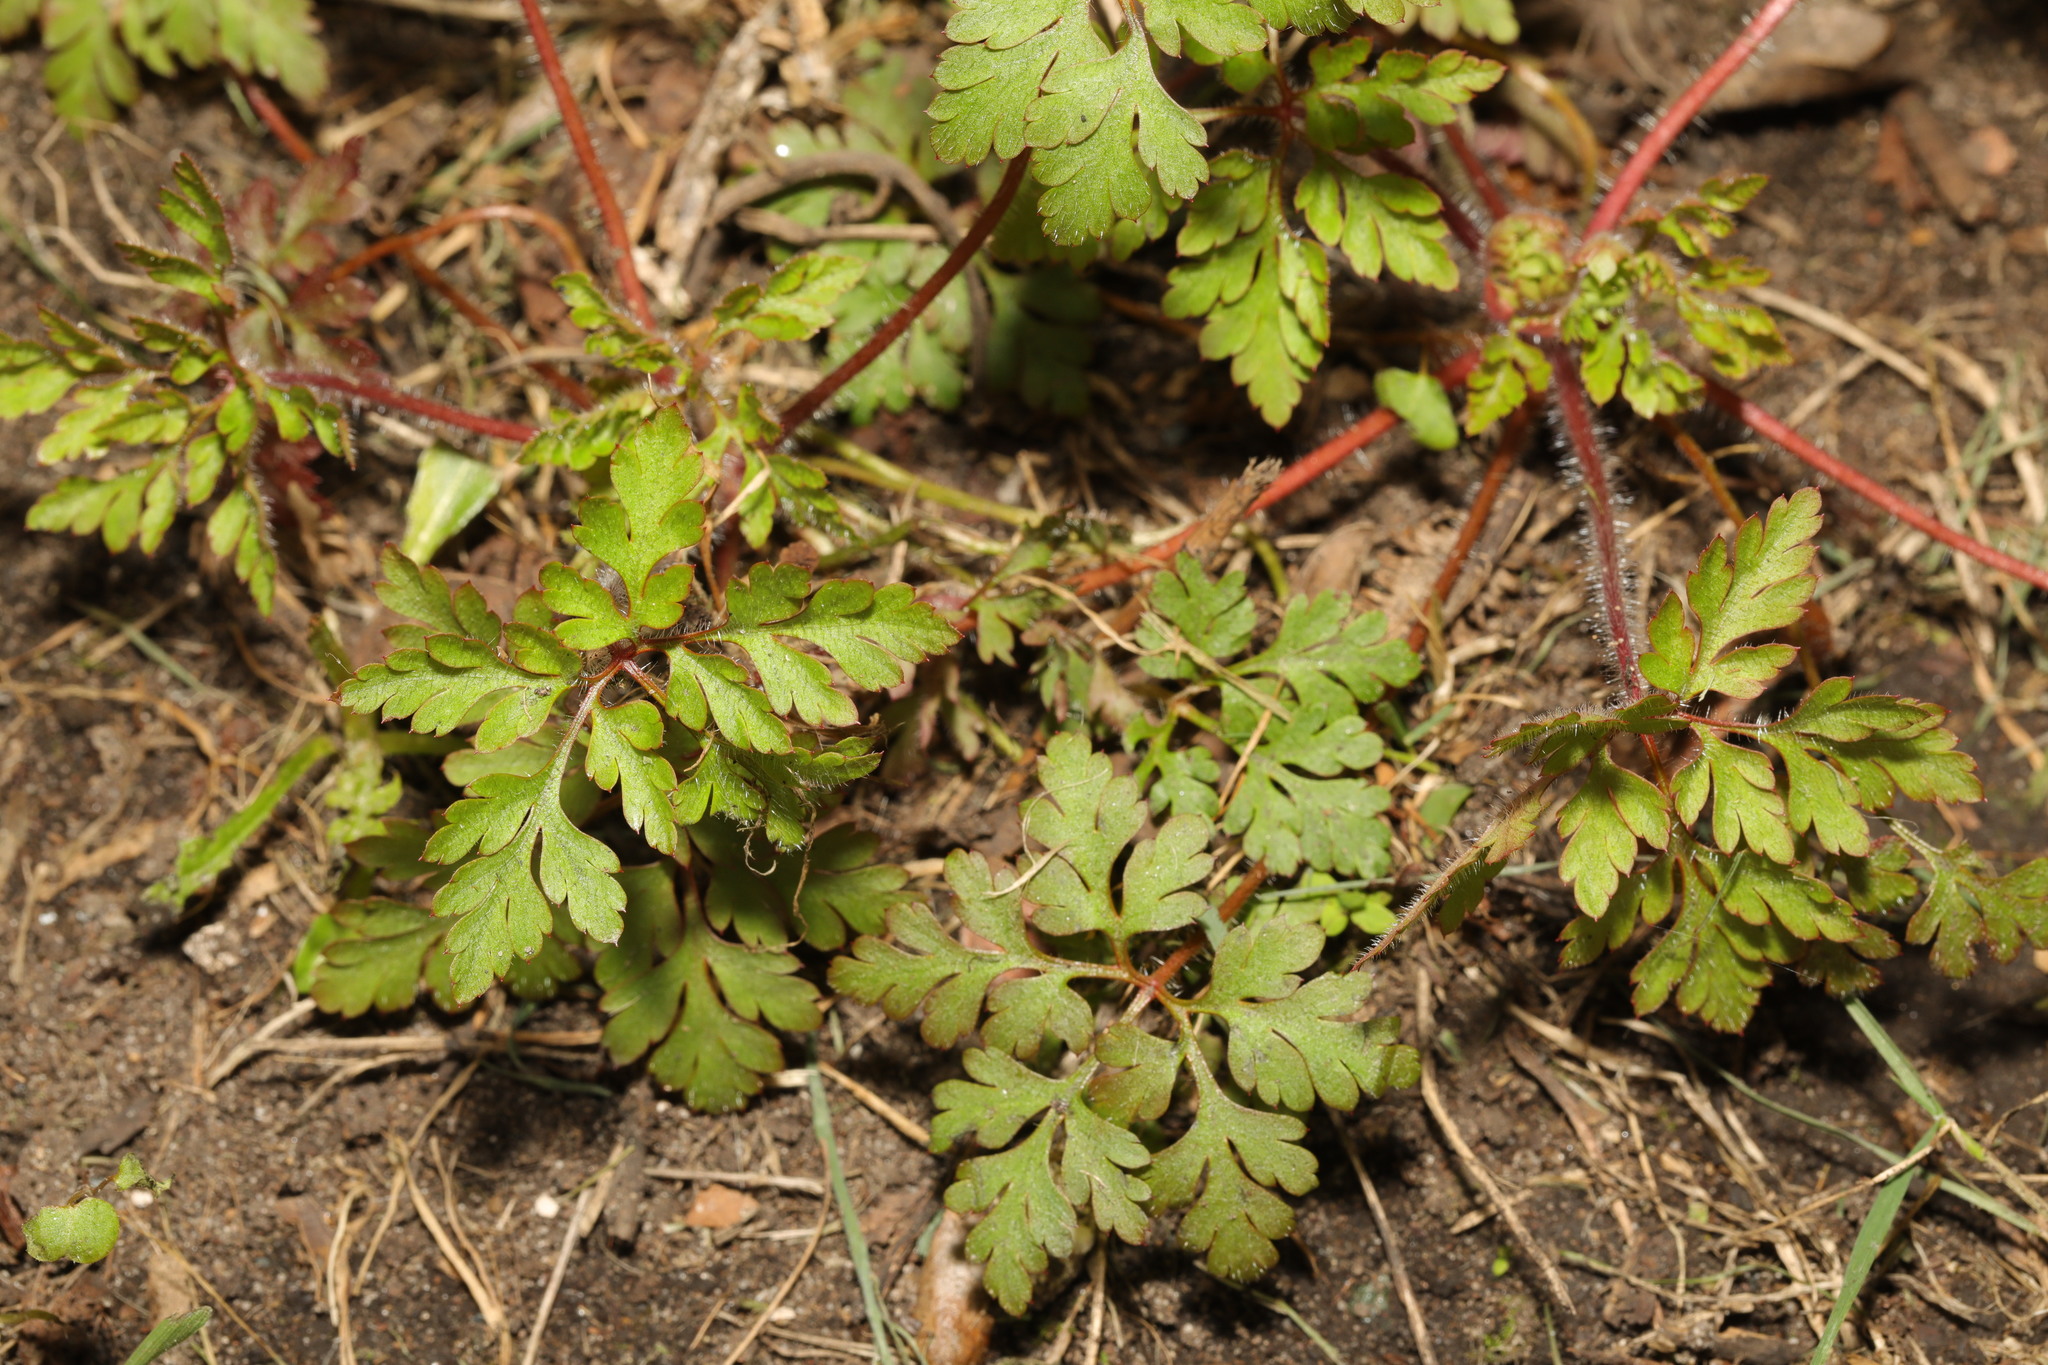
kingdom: Plantae
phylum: Tracheophyta
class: Magnoliopsida
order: Geraniales
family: Geraniaceae
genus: Geranium
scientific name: Geranium robertianum
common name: Herb-robert
